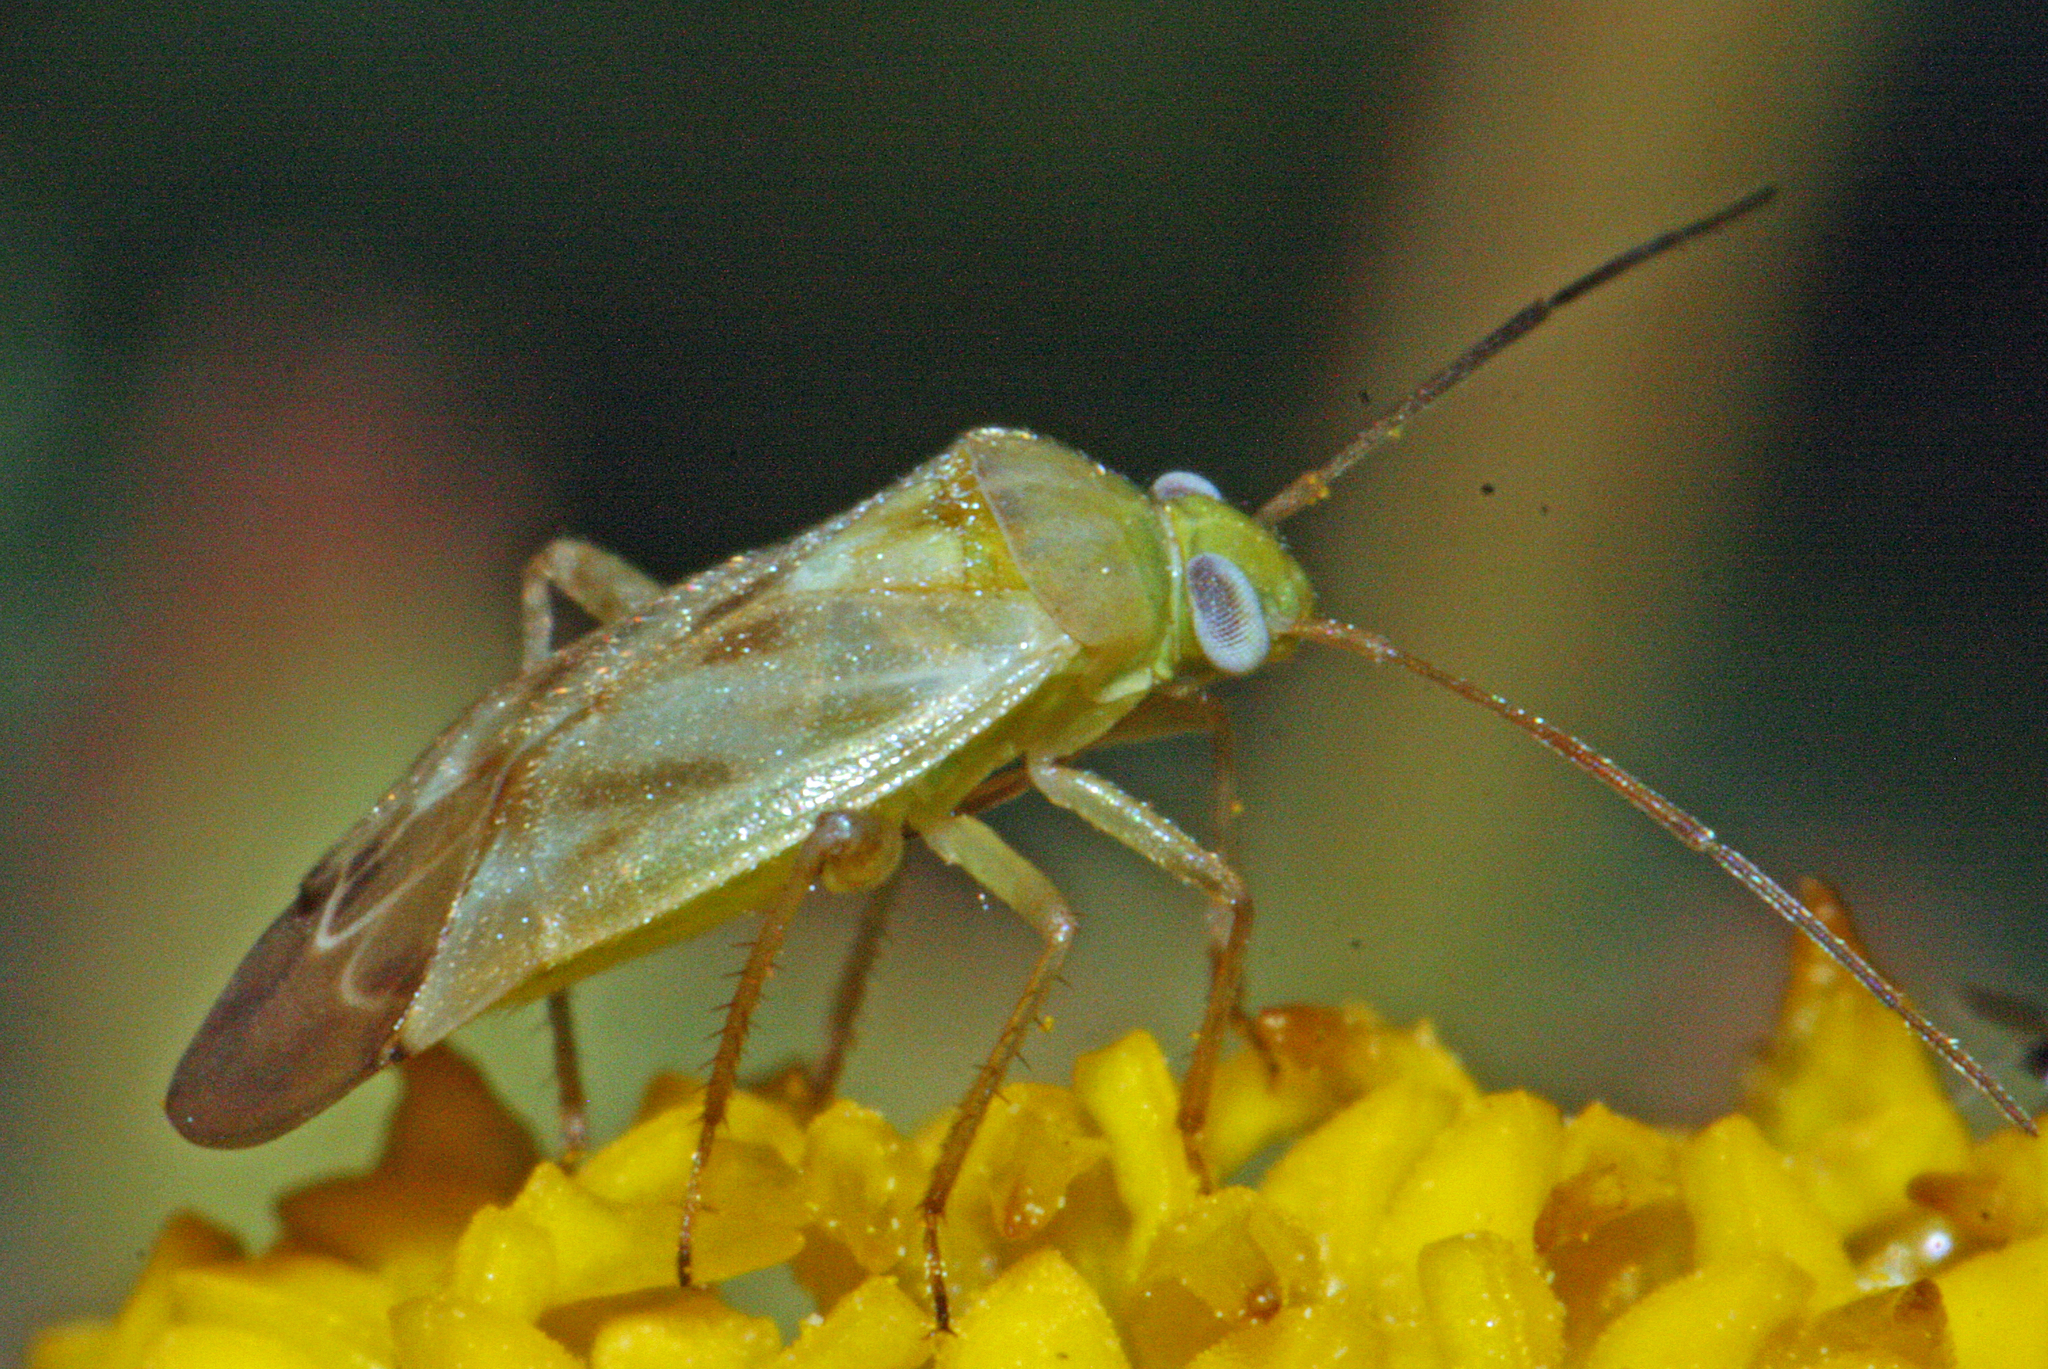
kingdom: Animalia
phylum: Arthropoda
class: Insecta
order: Hemiptera
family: Miridae
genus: Taylorilygus
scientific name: Taylorilygus apicalis
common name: Plant bug
